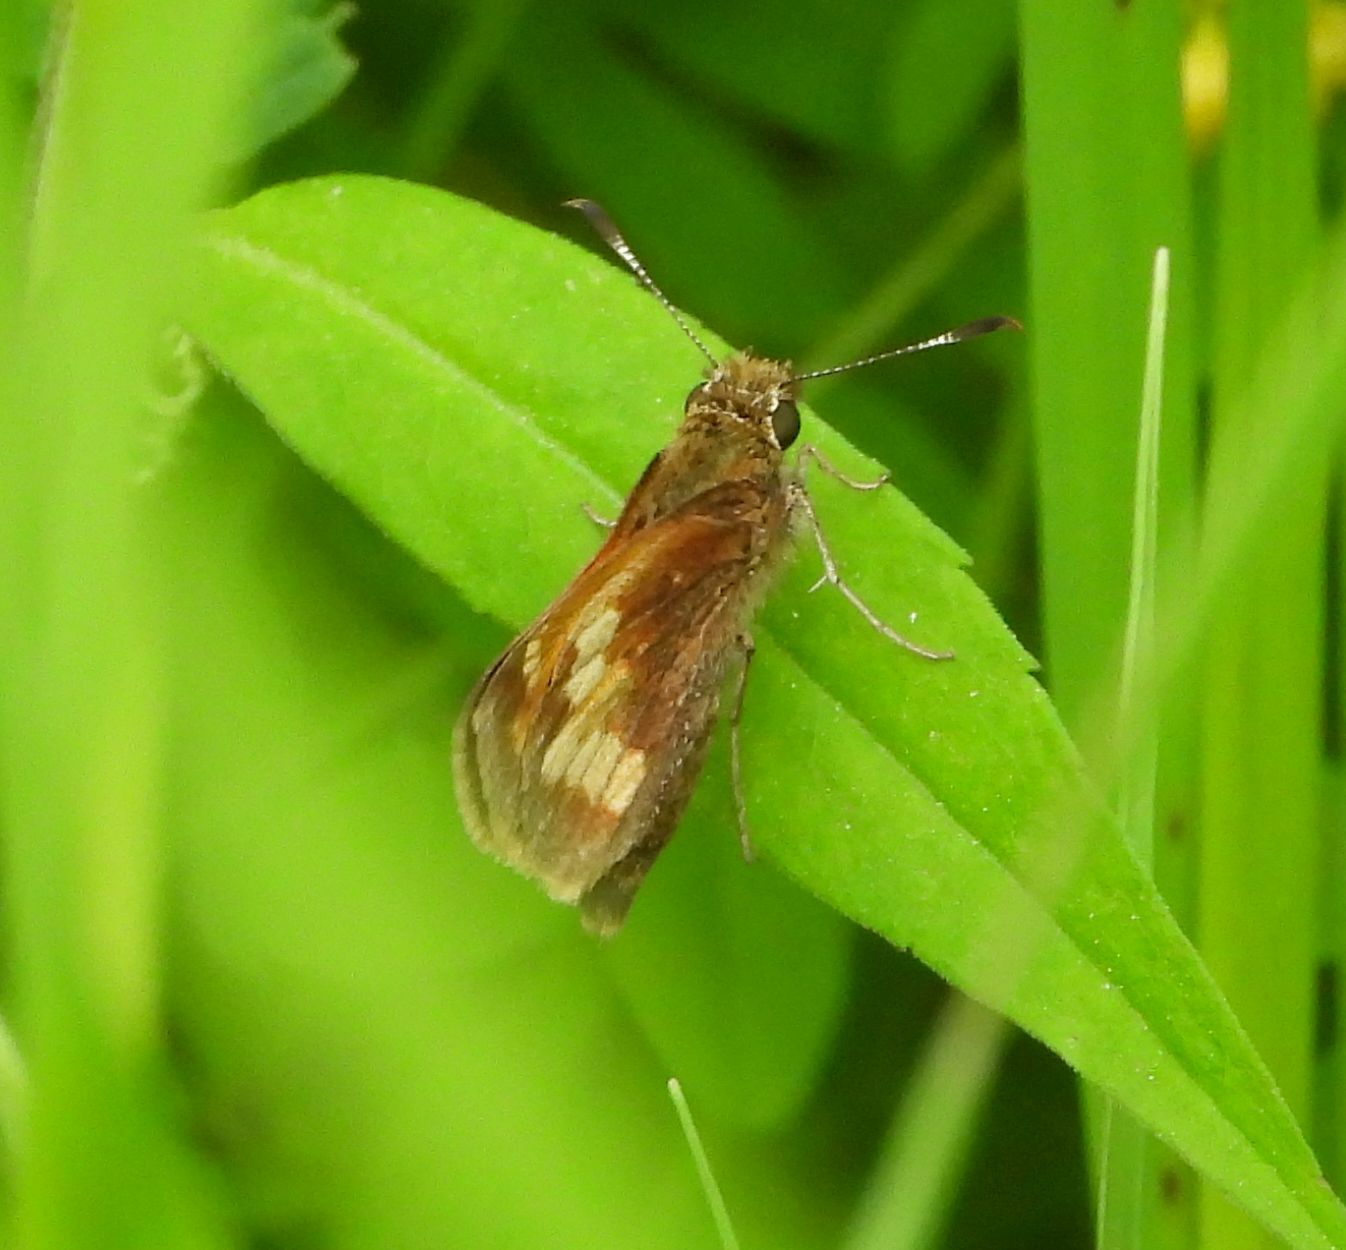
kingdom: Animalia
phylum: Arthropoda
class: Insecta
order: Lepidoptera
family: Hesperiidae
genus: Lon
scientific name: Lon hobomok
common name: Hobomok skipper
